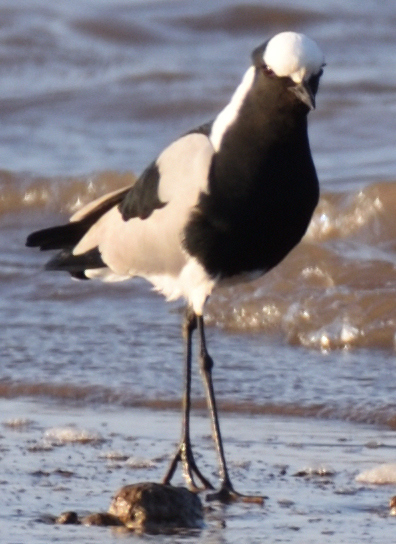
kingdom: Animalia
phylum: Chordata
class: Aves
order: Charadriiformes
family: Charadriidae
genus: Vanellus
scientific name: Vanellus armatus
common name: Blacksmith lapwing
